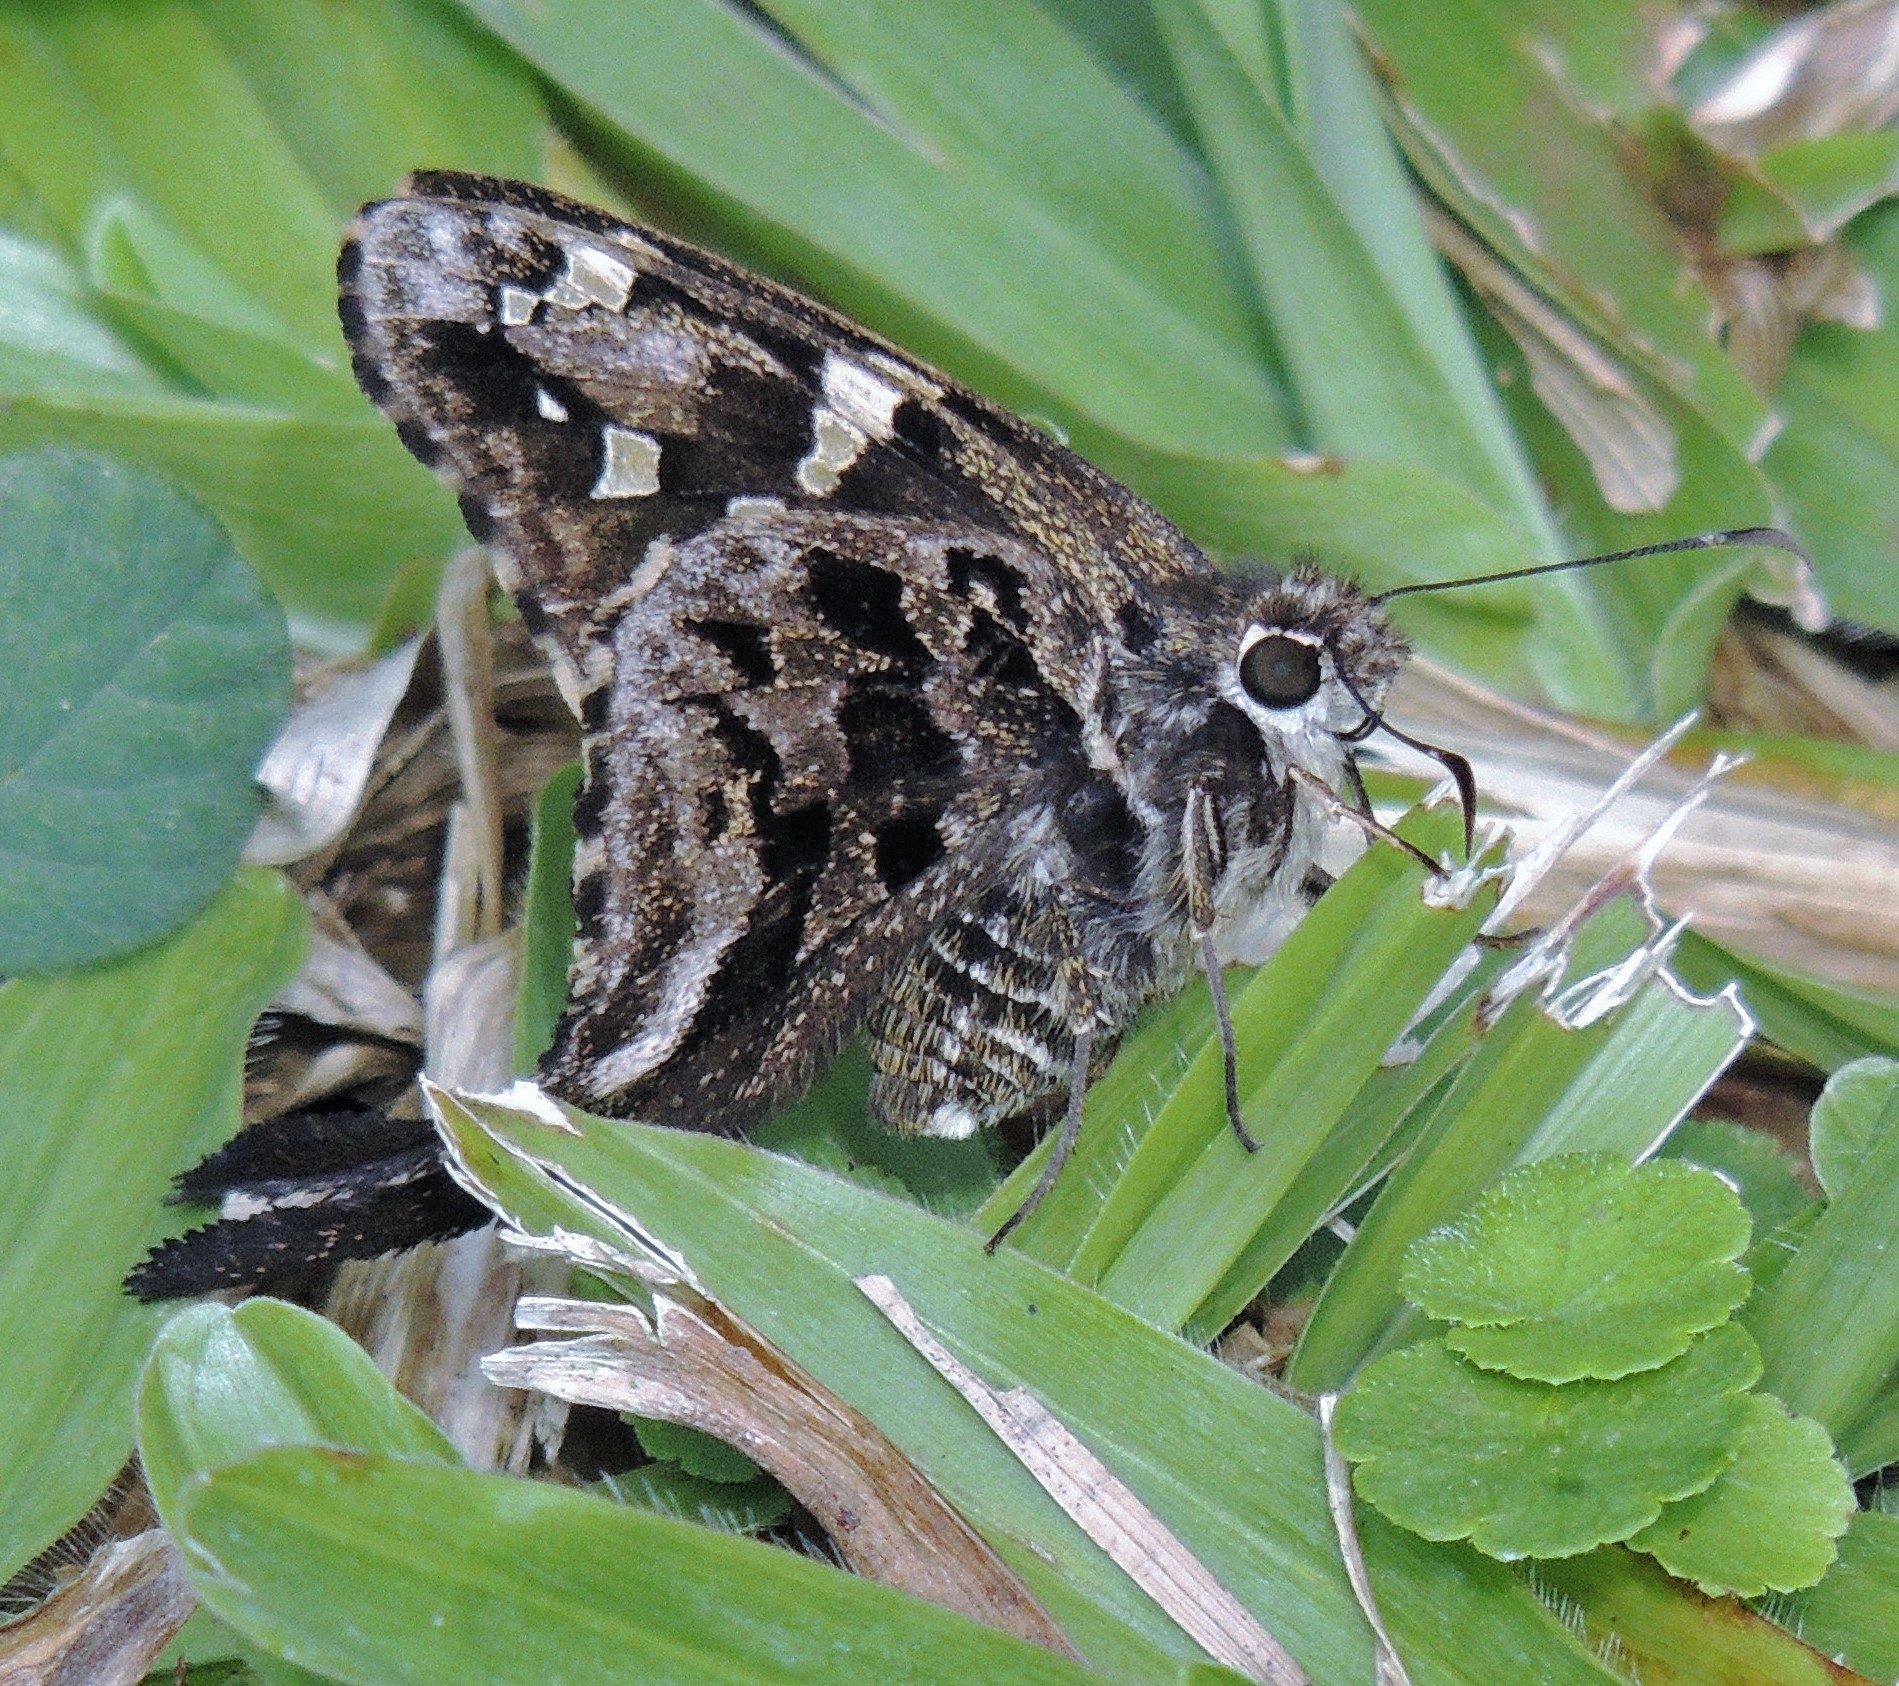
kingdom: Animalia
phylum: Arthropoda
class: Insecta
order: Lepidoptera
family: Hesperiidae
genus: Codatractus
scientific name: Codatractus aminias
